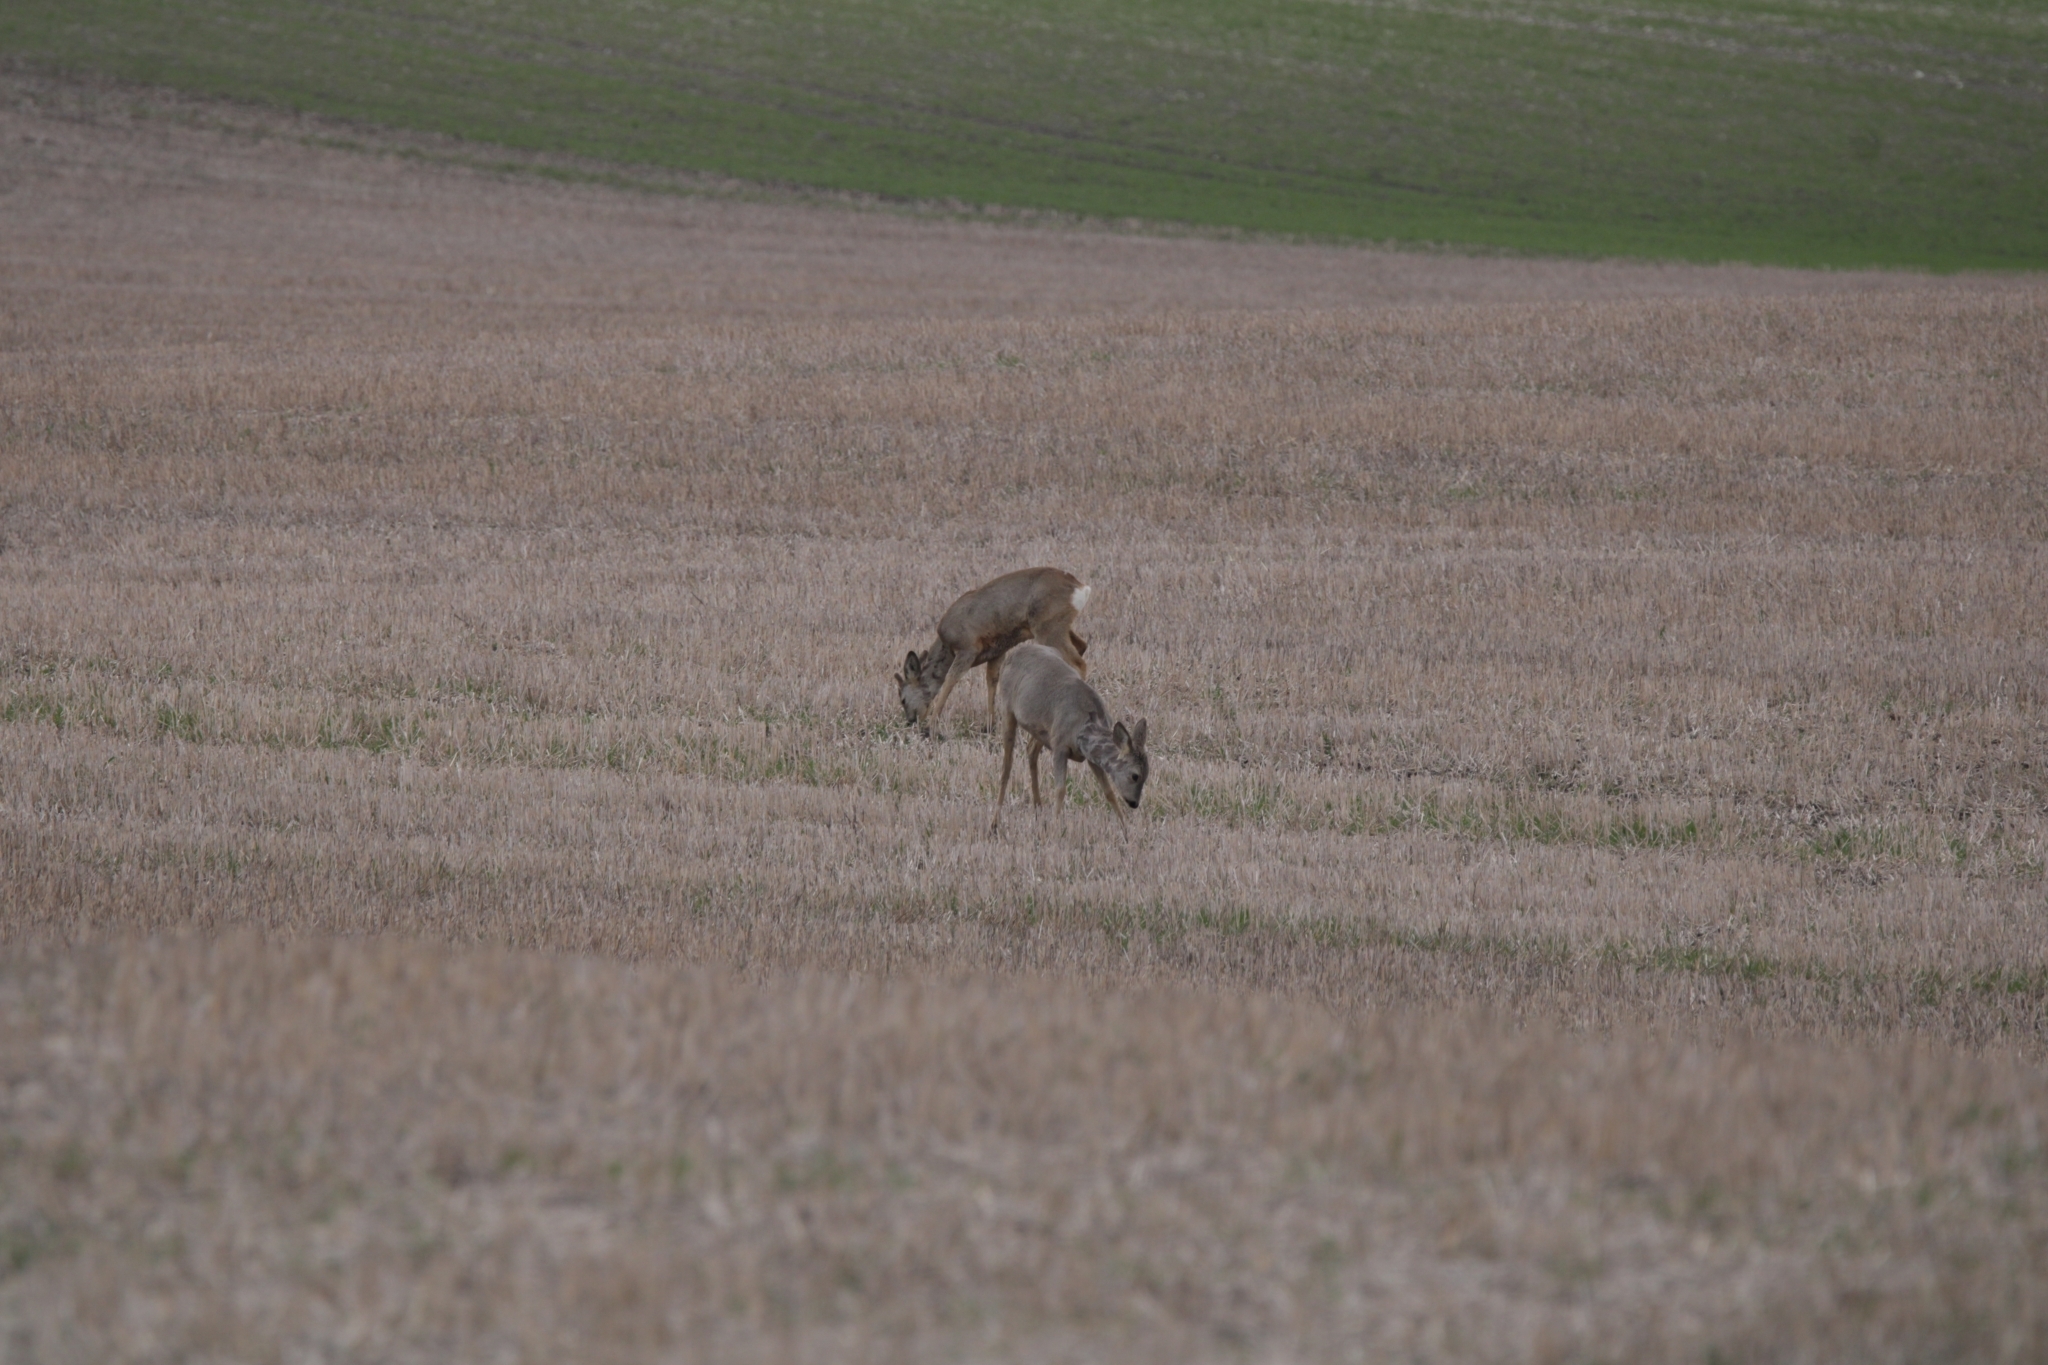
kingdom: Animalia
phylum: Chordata
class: Mammalia
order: Artiodactyla
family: Cervidae
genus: Capreolus
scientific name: Capreolus capreolus
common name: Western roe deer
